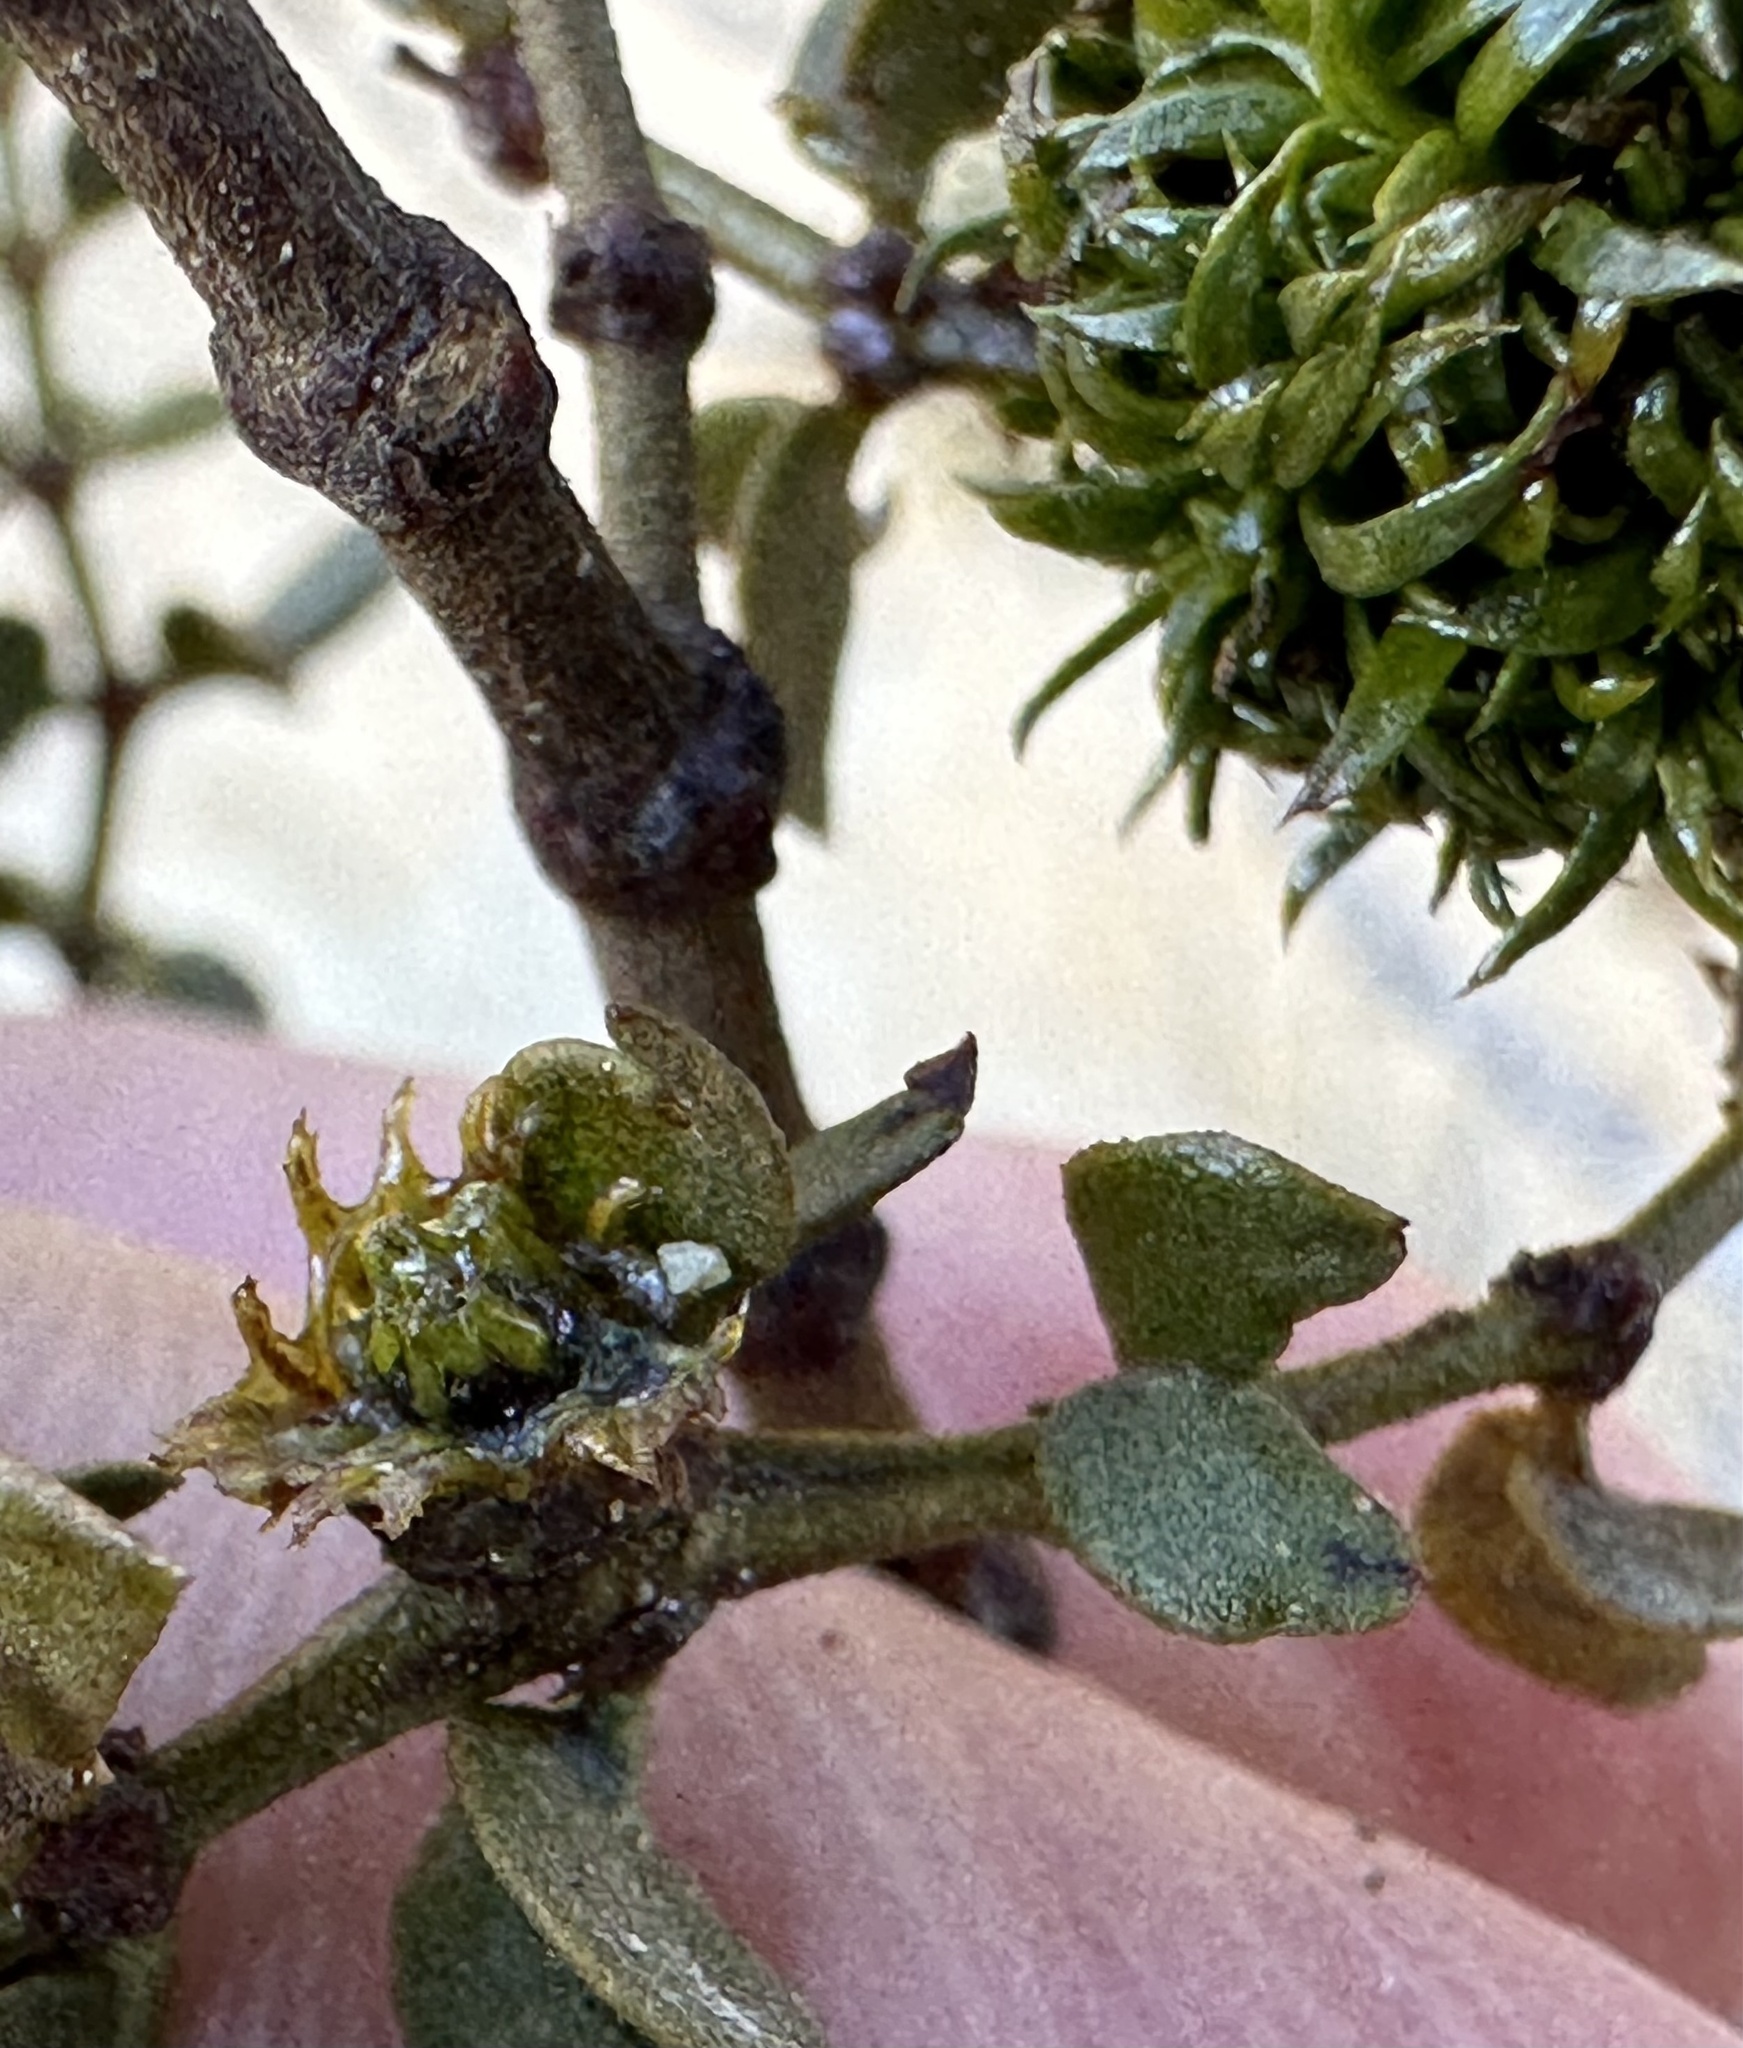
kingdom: Animalia
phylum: Arthropoda
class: Insecta
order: Diptera
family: Cecidomyiidae
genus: Asphondylia
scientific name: Asphondylia auripila
